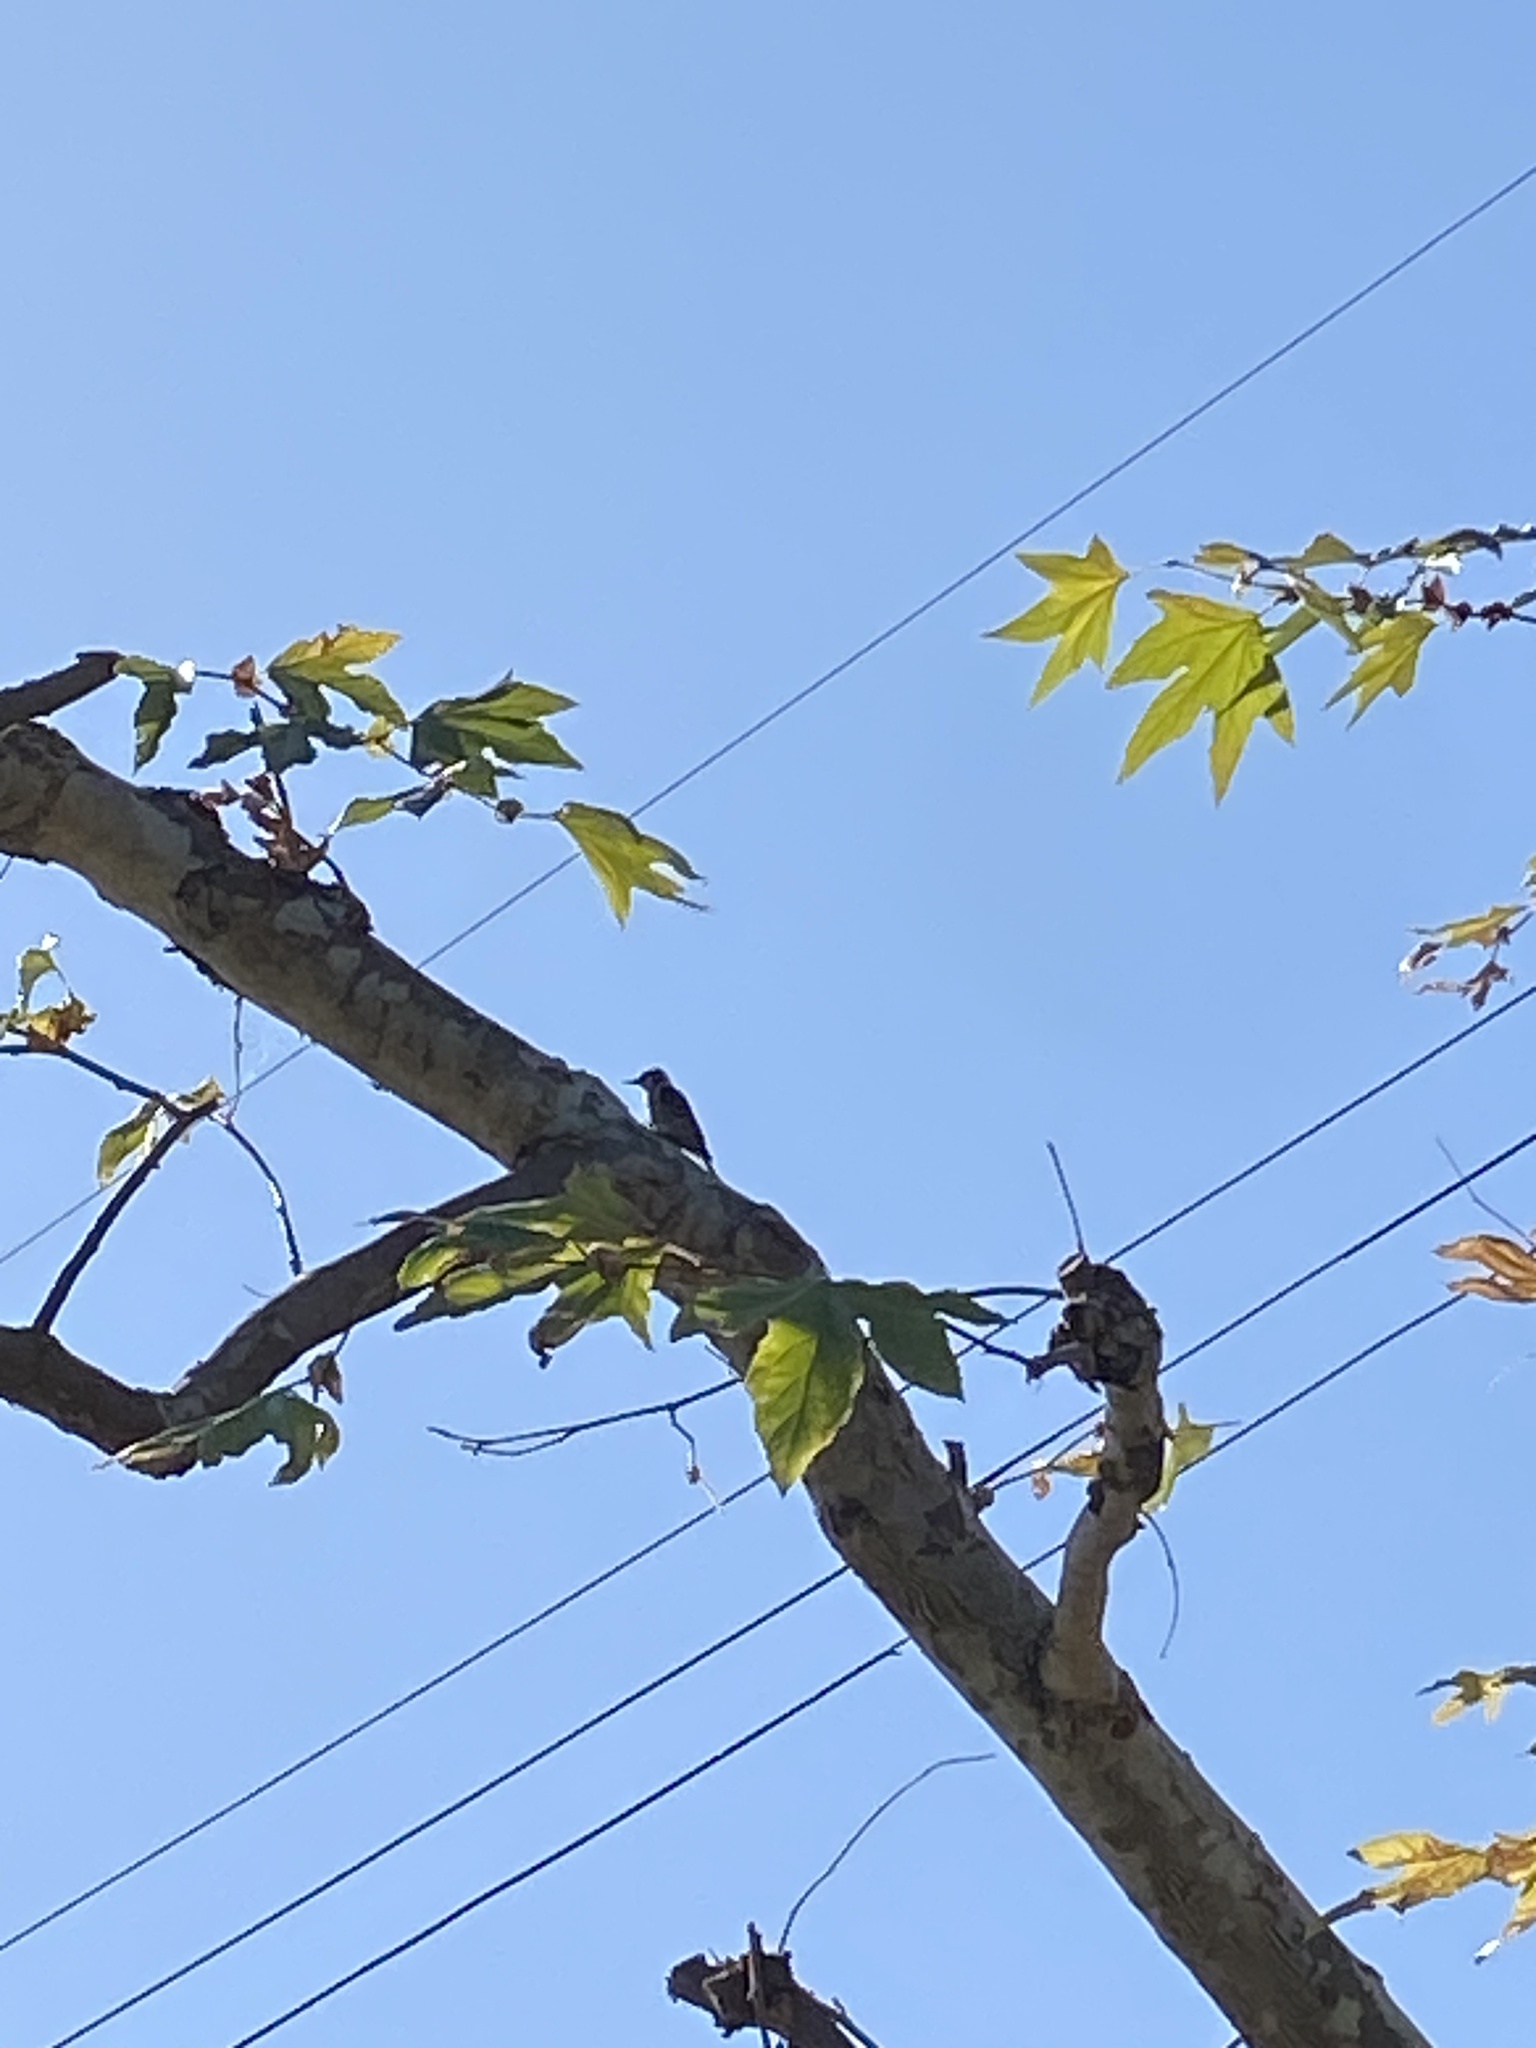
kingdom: Animalia
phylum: Chordata
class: Aves
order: Piciformes
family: Picidae
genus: Dryobates
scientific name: Dryobates nuttallii
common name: Nuttall's woodpecker
